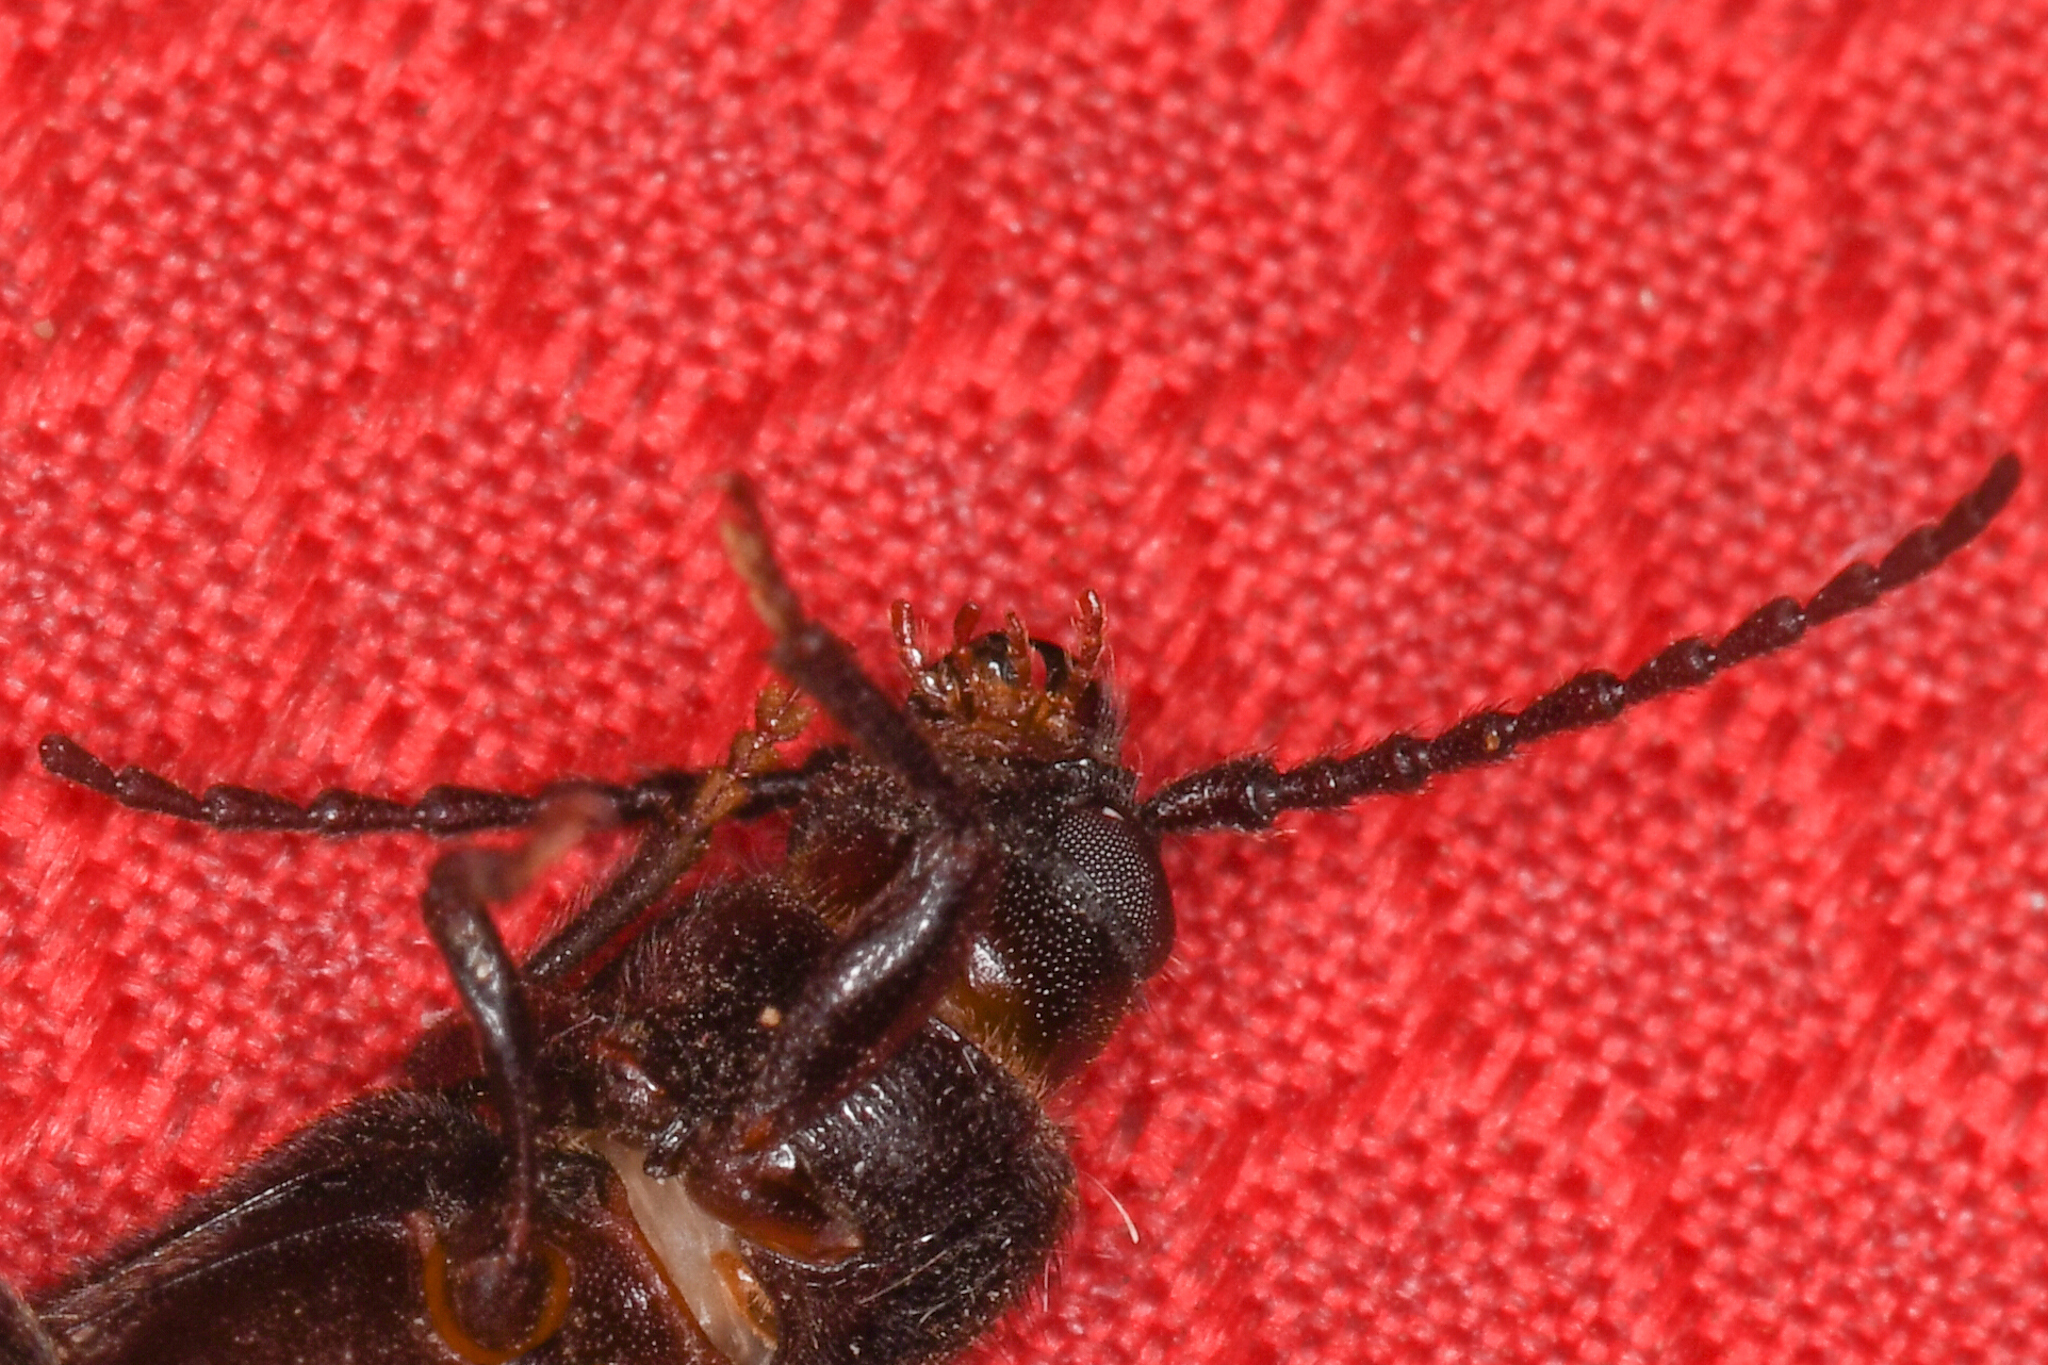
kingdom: Animalia
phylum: Arthropoda
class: Insecta
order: Coleoptera
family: Cerambycidae
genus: Asemum
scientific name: Asemum nitidum
